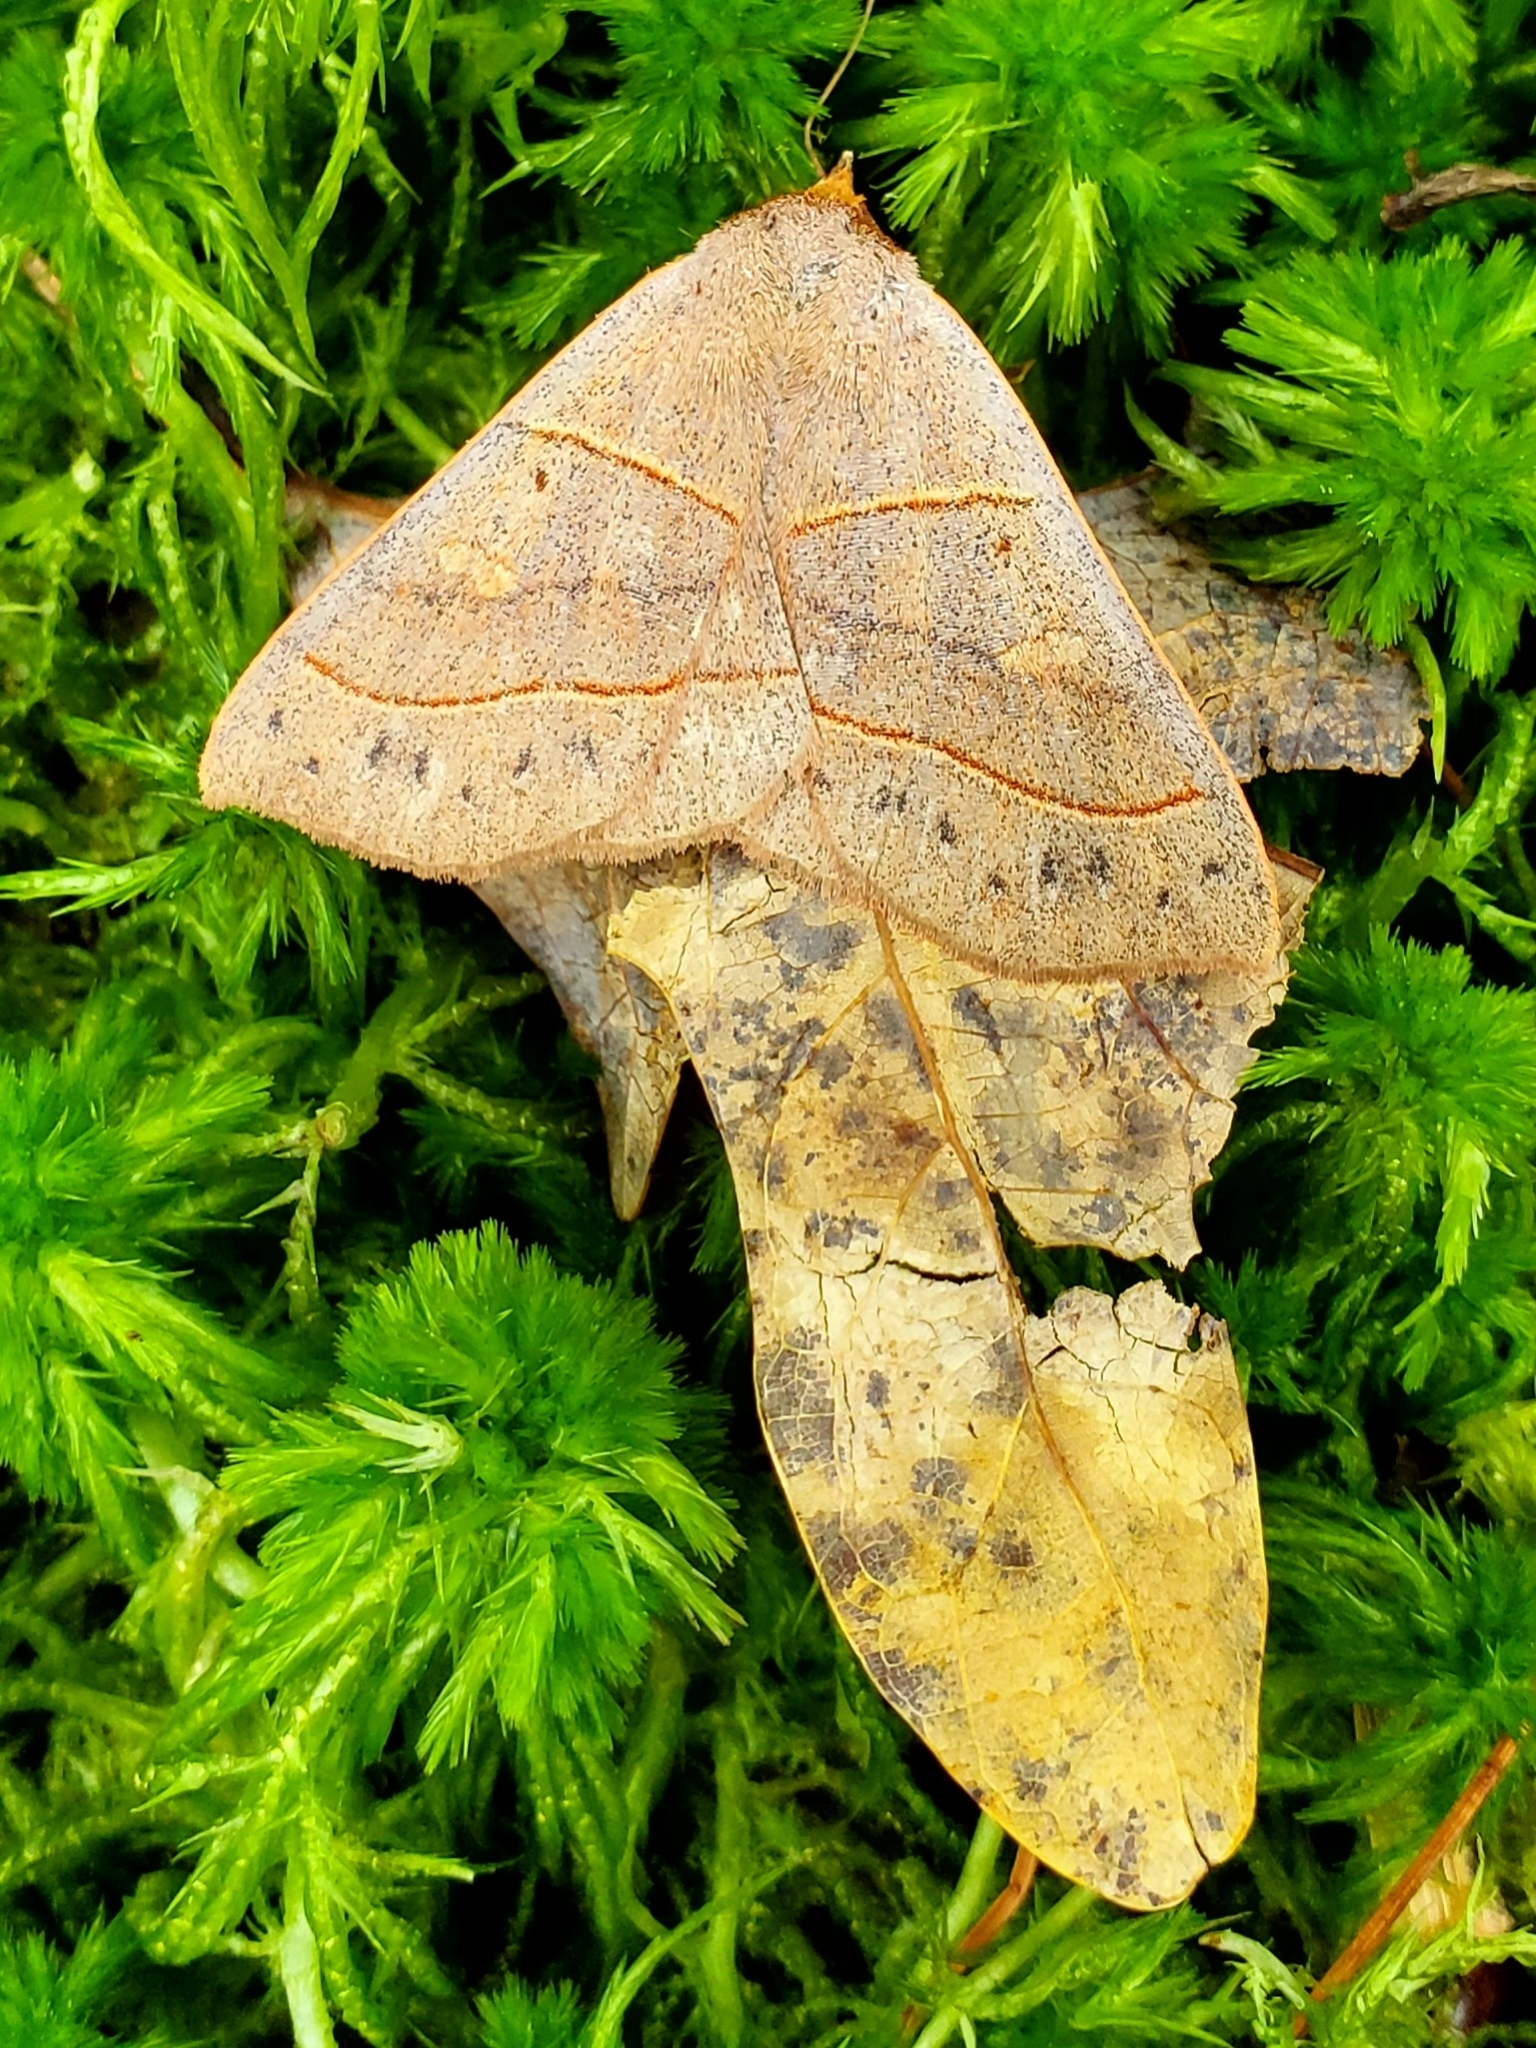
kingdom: Animalia
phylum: Arthropoda
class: Insecta
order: Lepidoptera
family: Erebidae
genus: Panopoda
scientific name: Panopoda rufimargo
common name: Red-lined panopoda moth
